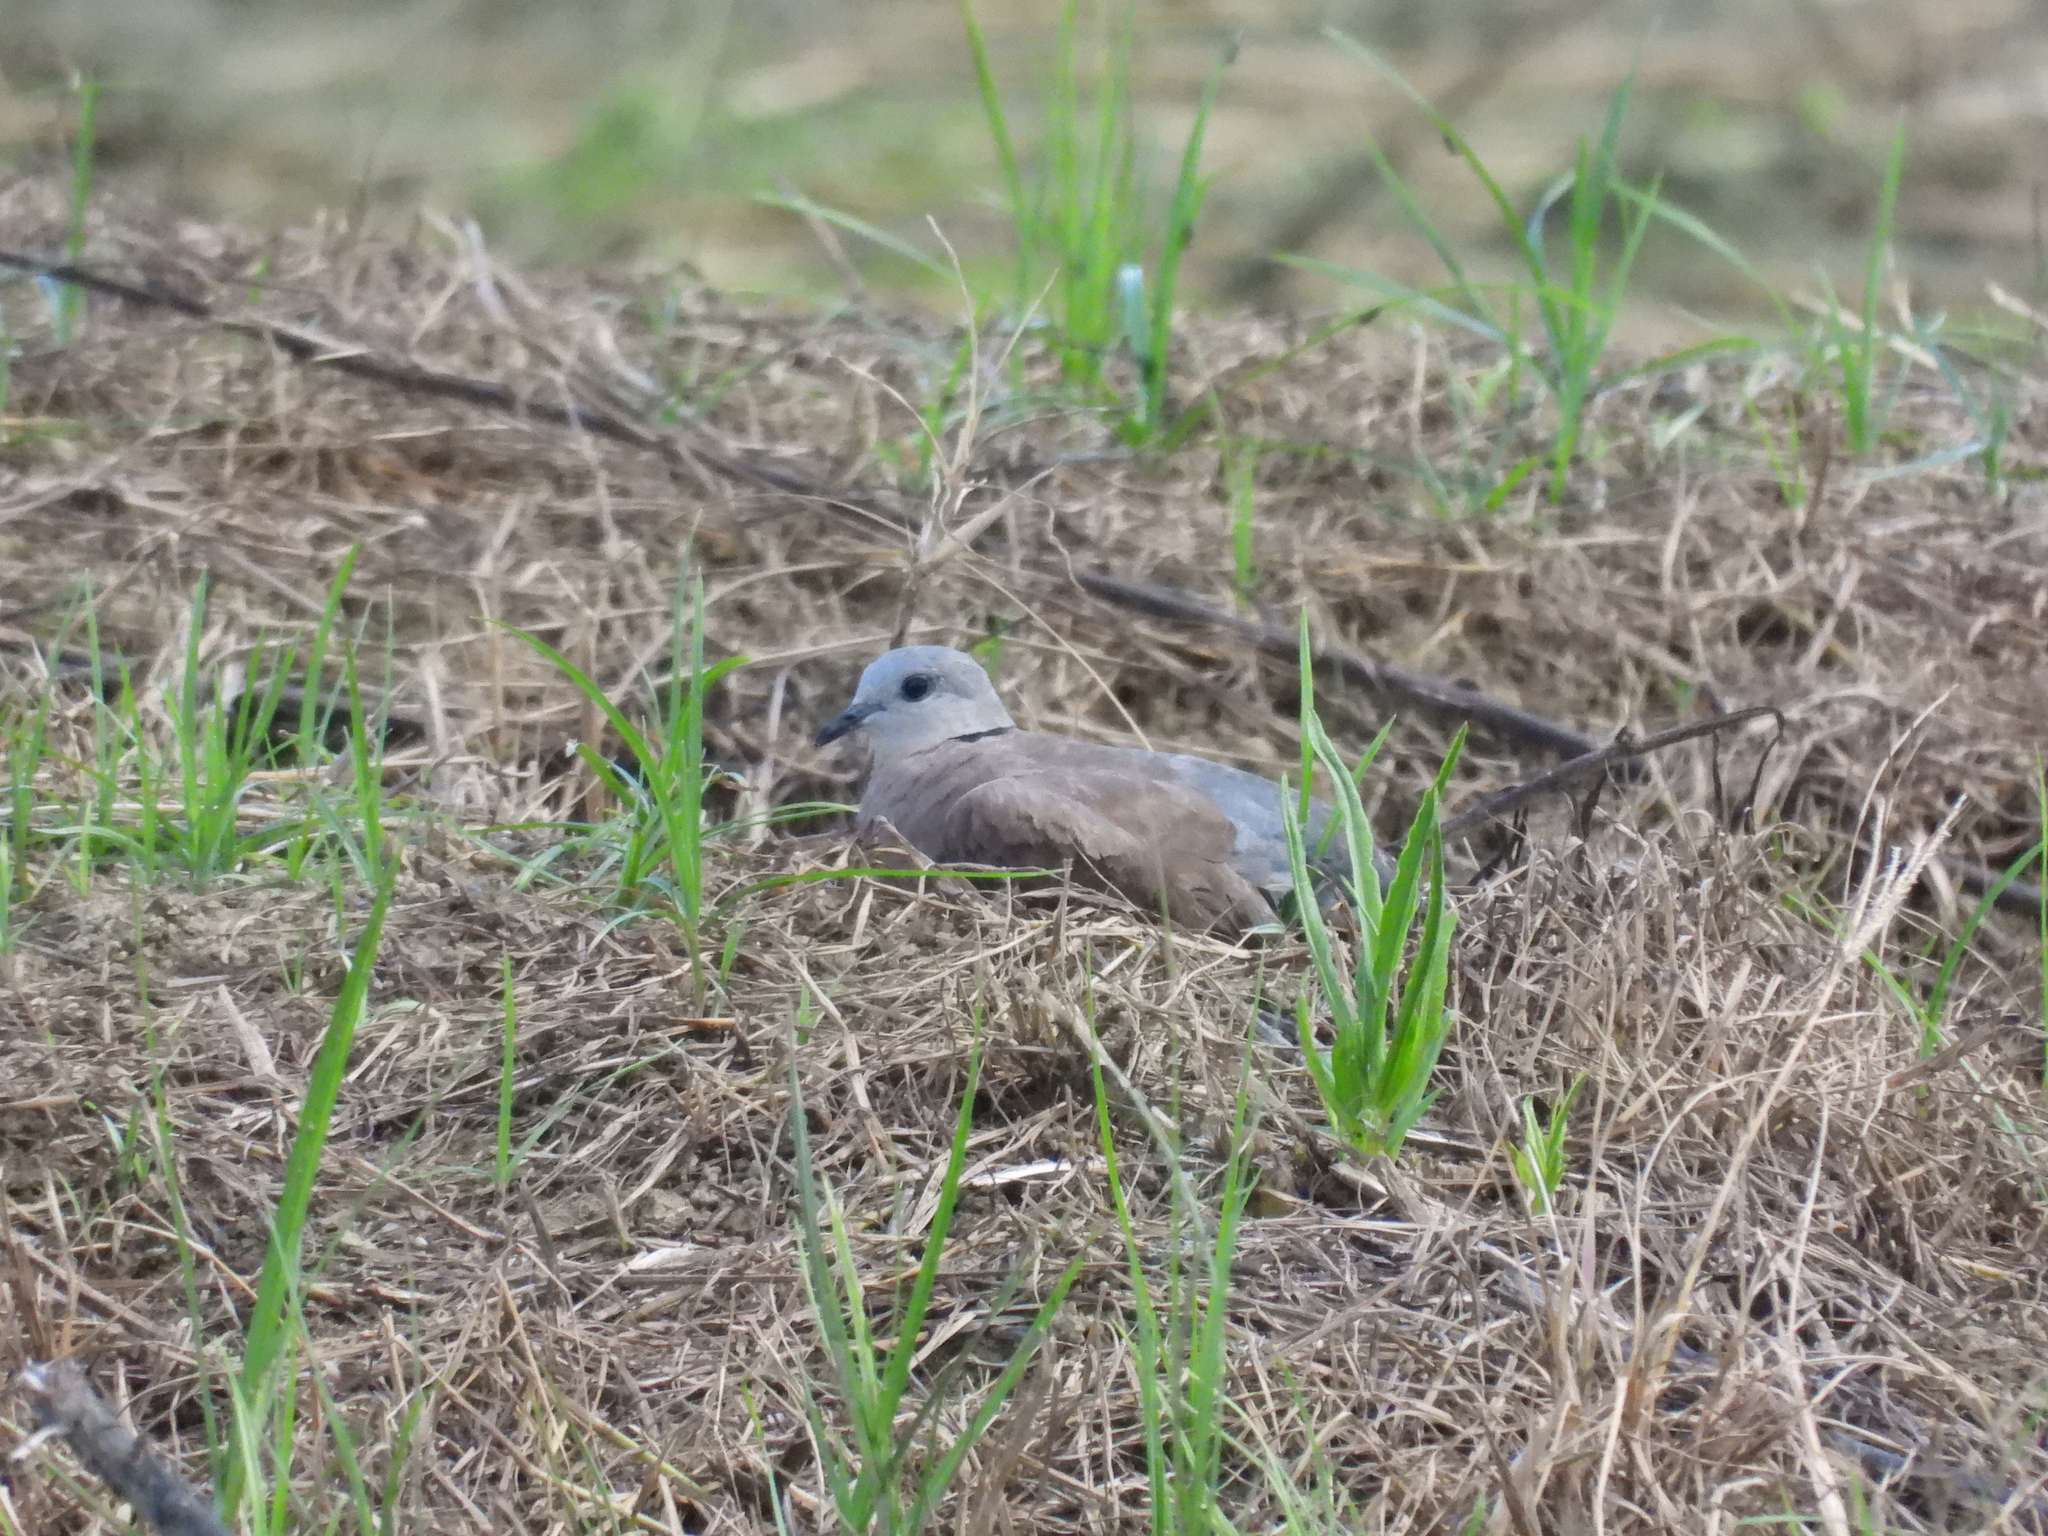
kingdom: Animalia
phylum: Chordata
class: Aves
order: Columbiformes
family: Columbidae
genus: Streptopelia
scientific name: Streptopelia tranquebarica
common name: Red turtle dove
